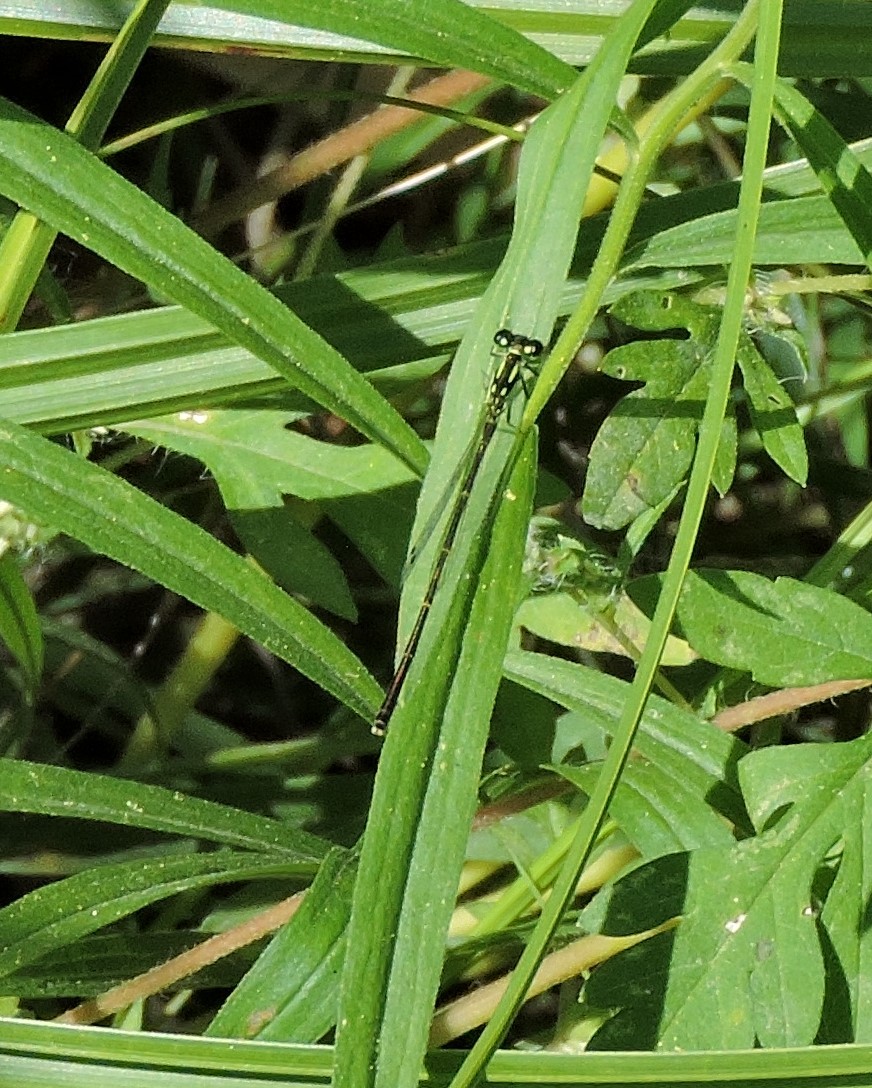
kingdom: Animalia
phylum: Arthropoda
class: Insecta
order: Odonata
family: Coenagrionidae
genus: Ischnura
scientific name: Ischnura posita
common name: Fragile forktail
